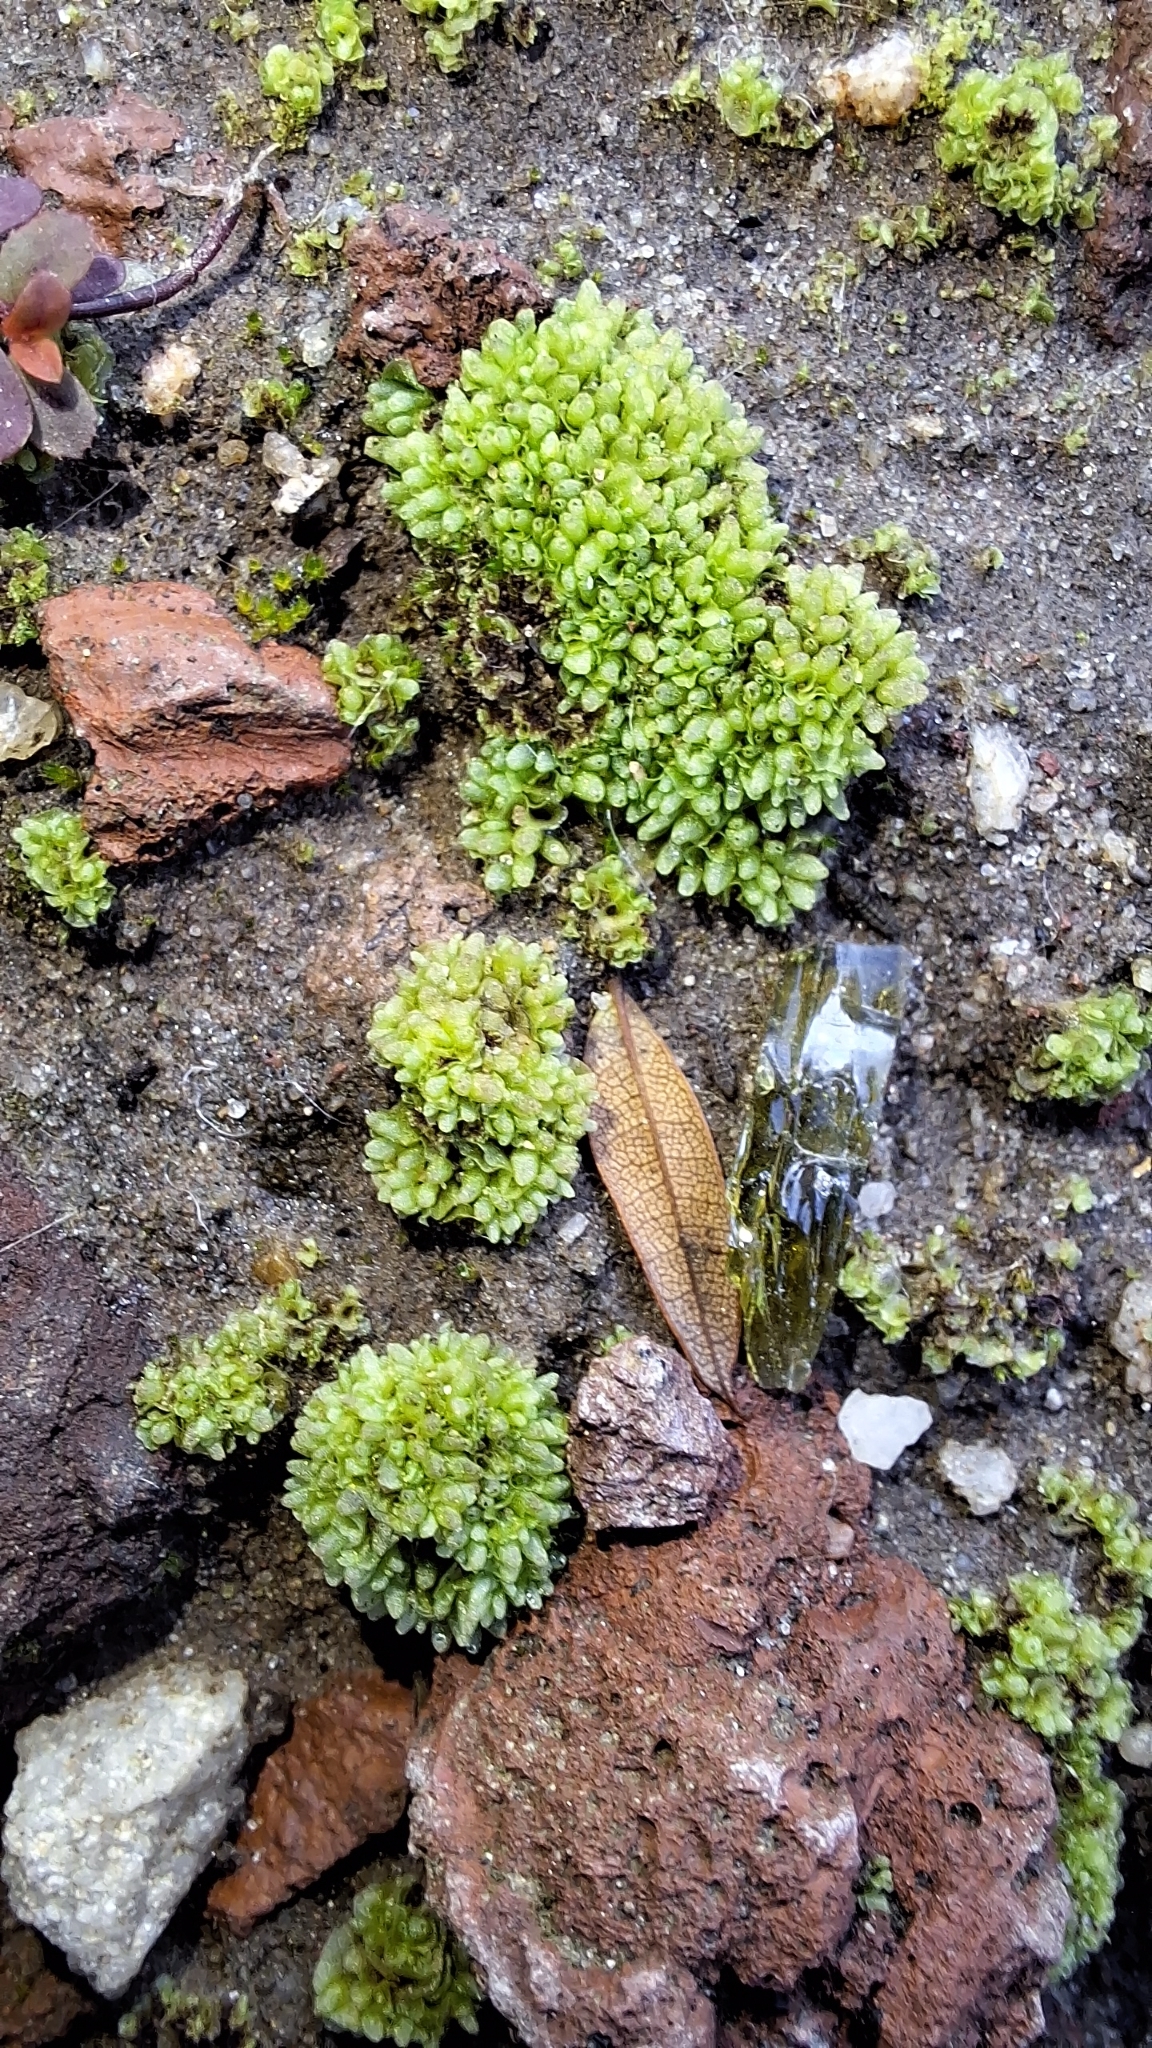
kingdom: Plantae
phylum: Marchantiophyta
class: Marchantiopsida
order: Sphaerocarpales
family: Sphaerocarpaceae
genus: Sphaerocarpos
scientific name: Sphaerocarpos texanus
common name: Texas balloonwort
